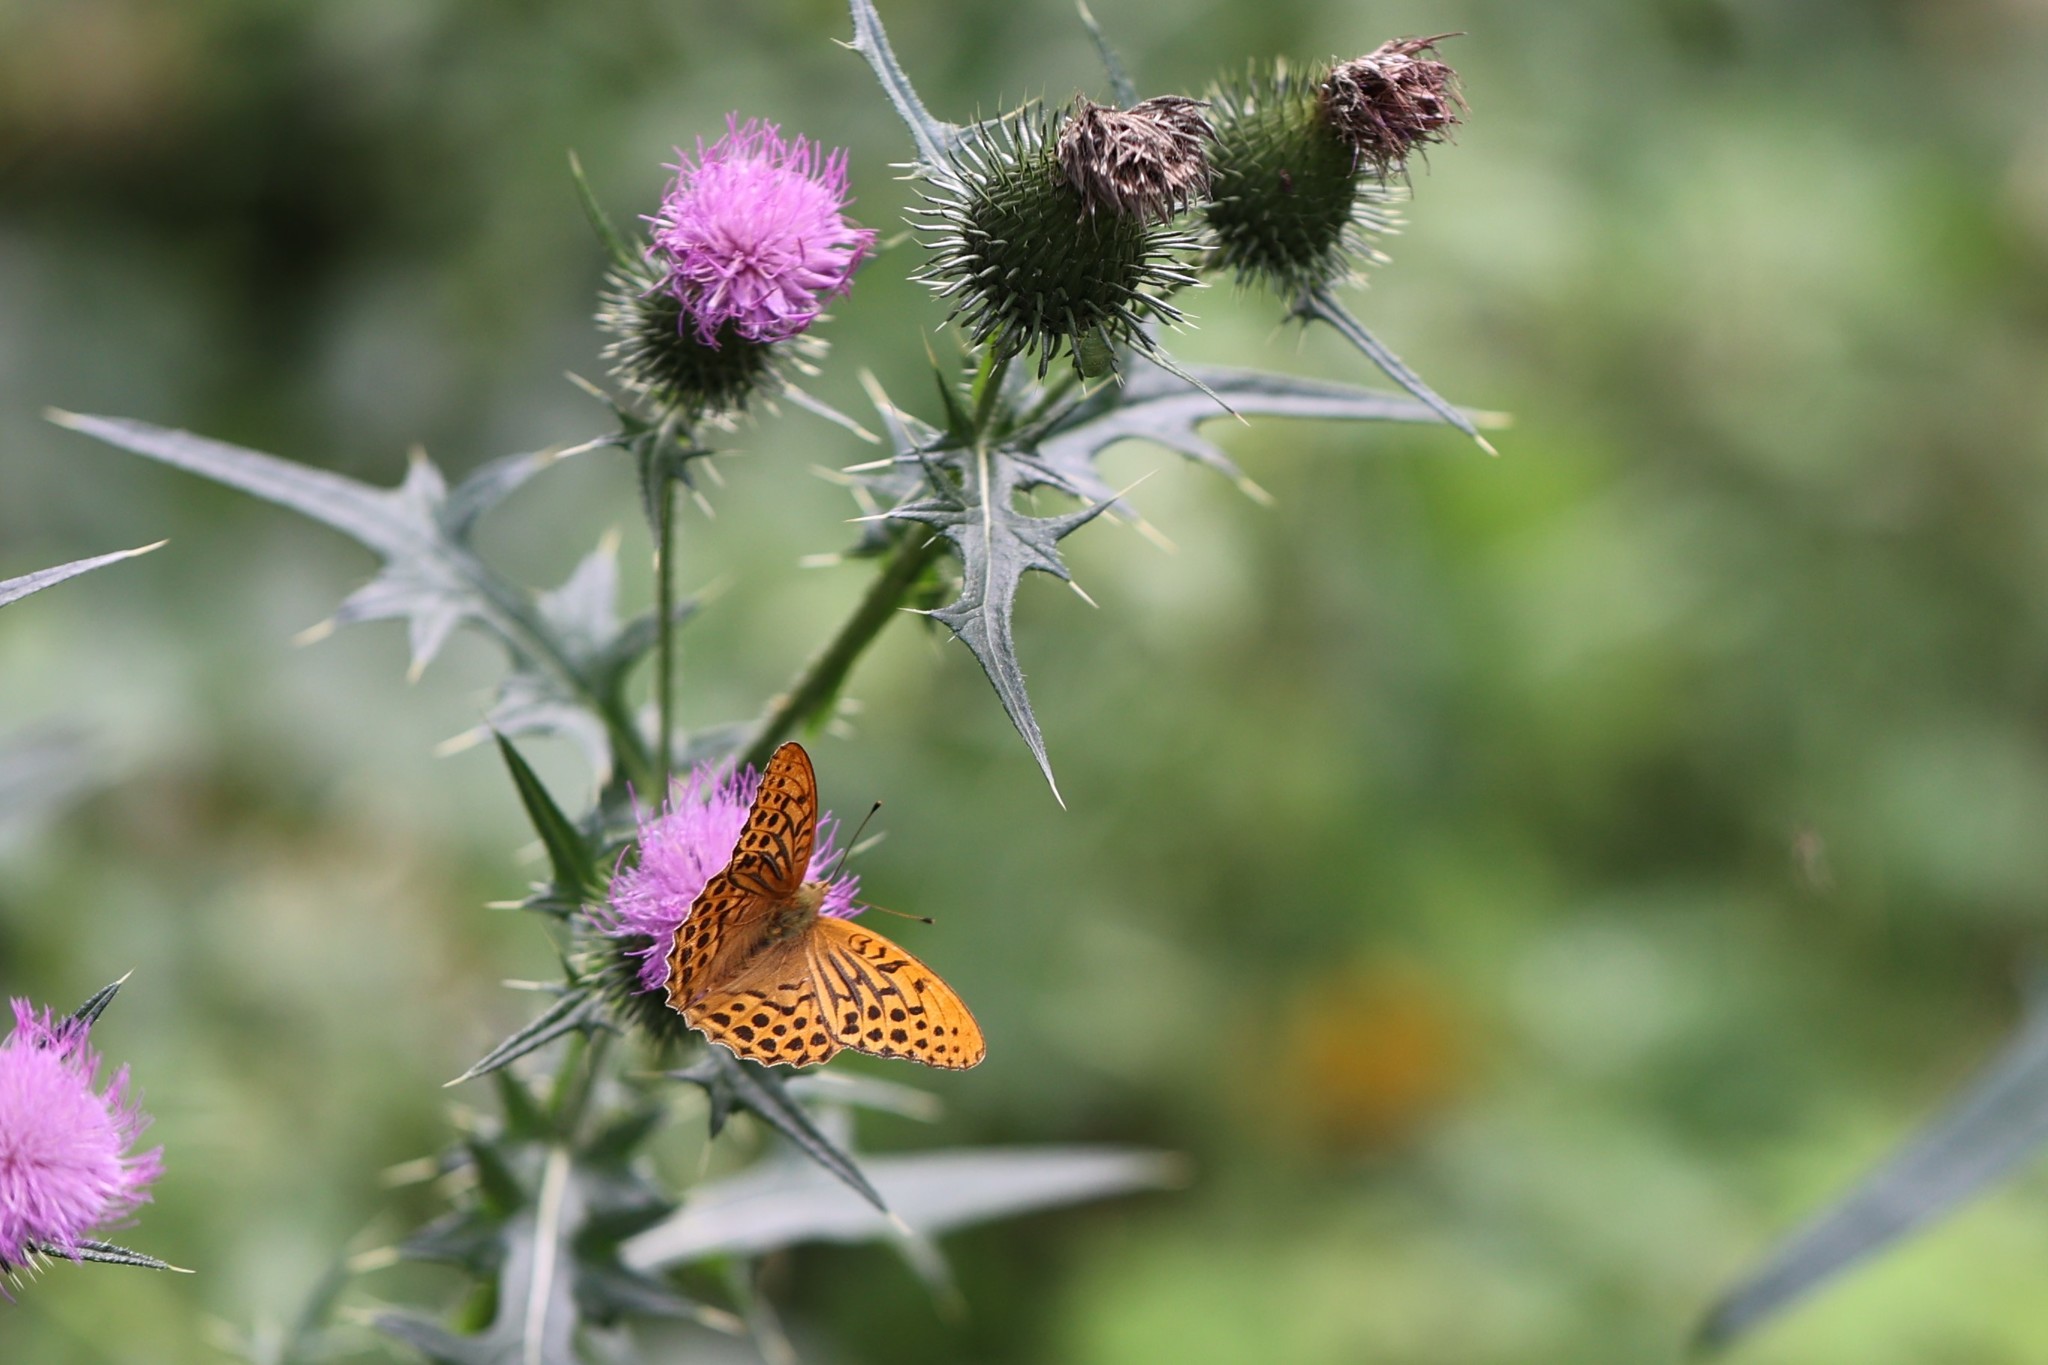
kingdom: Animalia
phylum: Arthropoda
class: Insecta
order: Lepidoptera
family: Nymphalidae
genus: Argynnis
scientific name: Argynnis paphia
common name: Silver-washed fritillary
